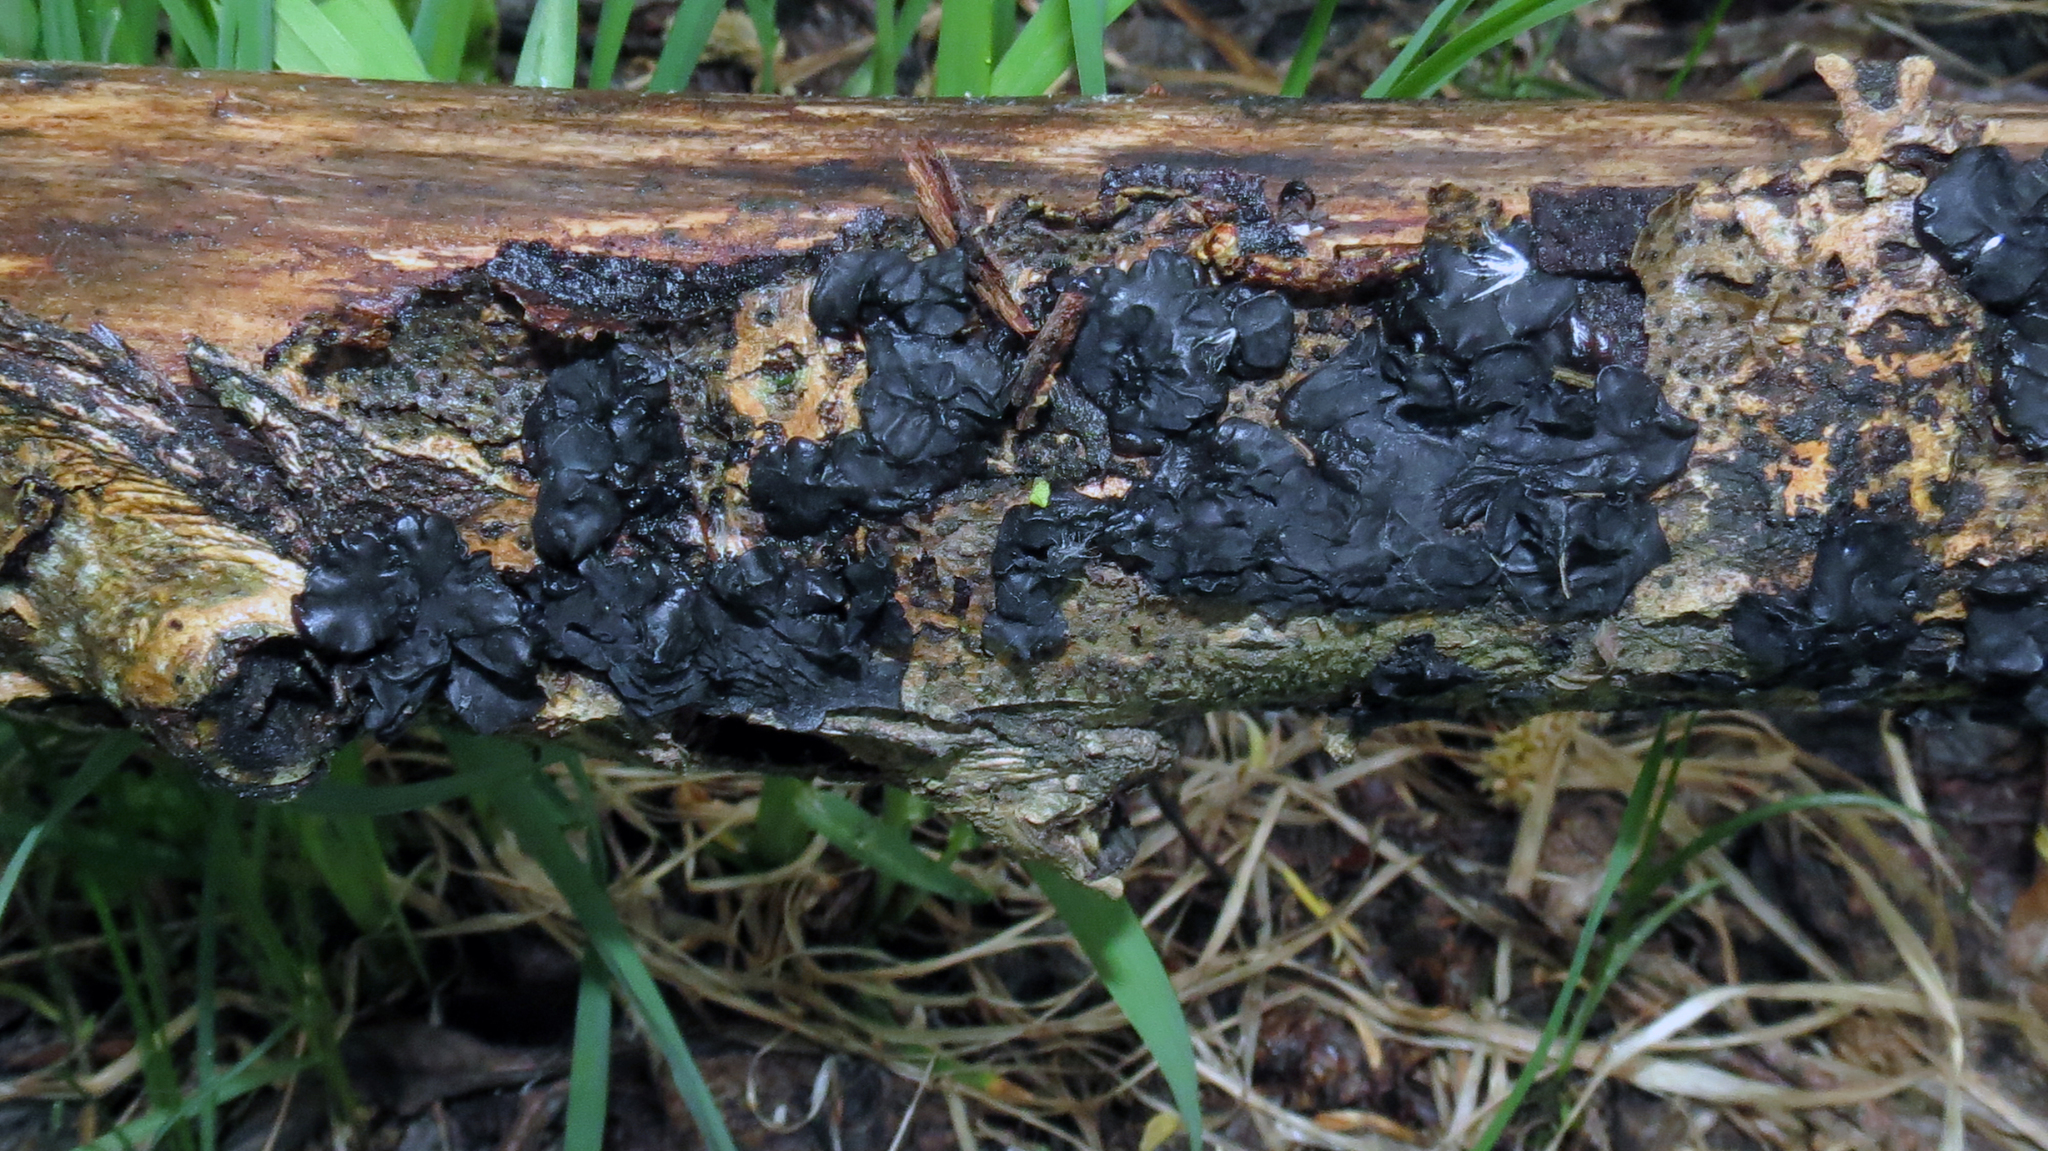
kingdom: Fungi
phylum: Basidiomycota
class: Agaricomycetes
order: Auriculariales
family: Auriculariaceae
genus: Exidia
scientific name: Exidia nigricans
